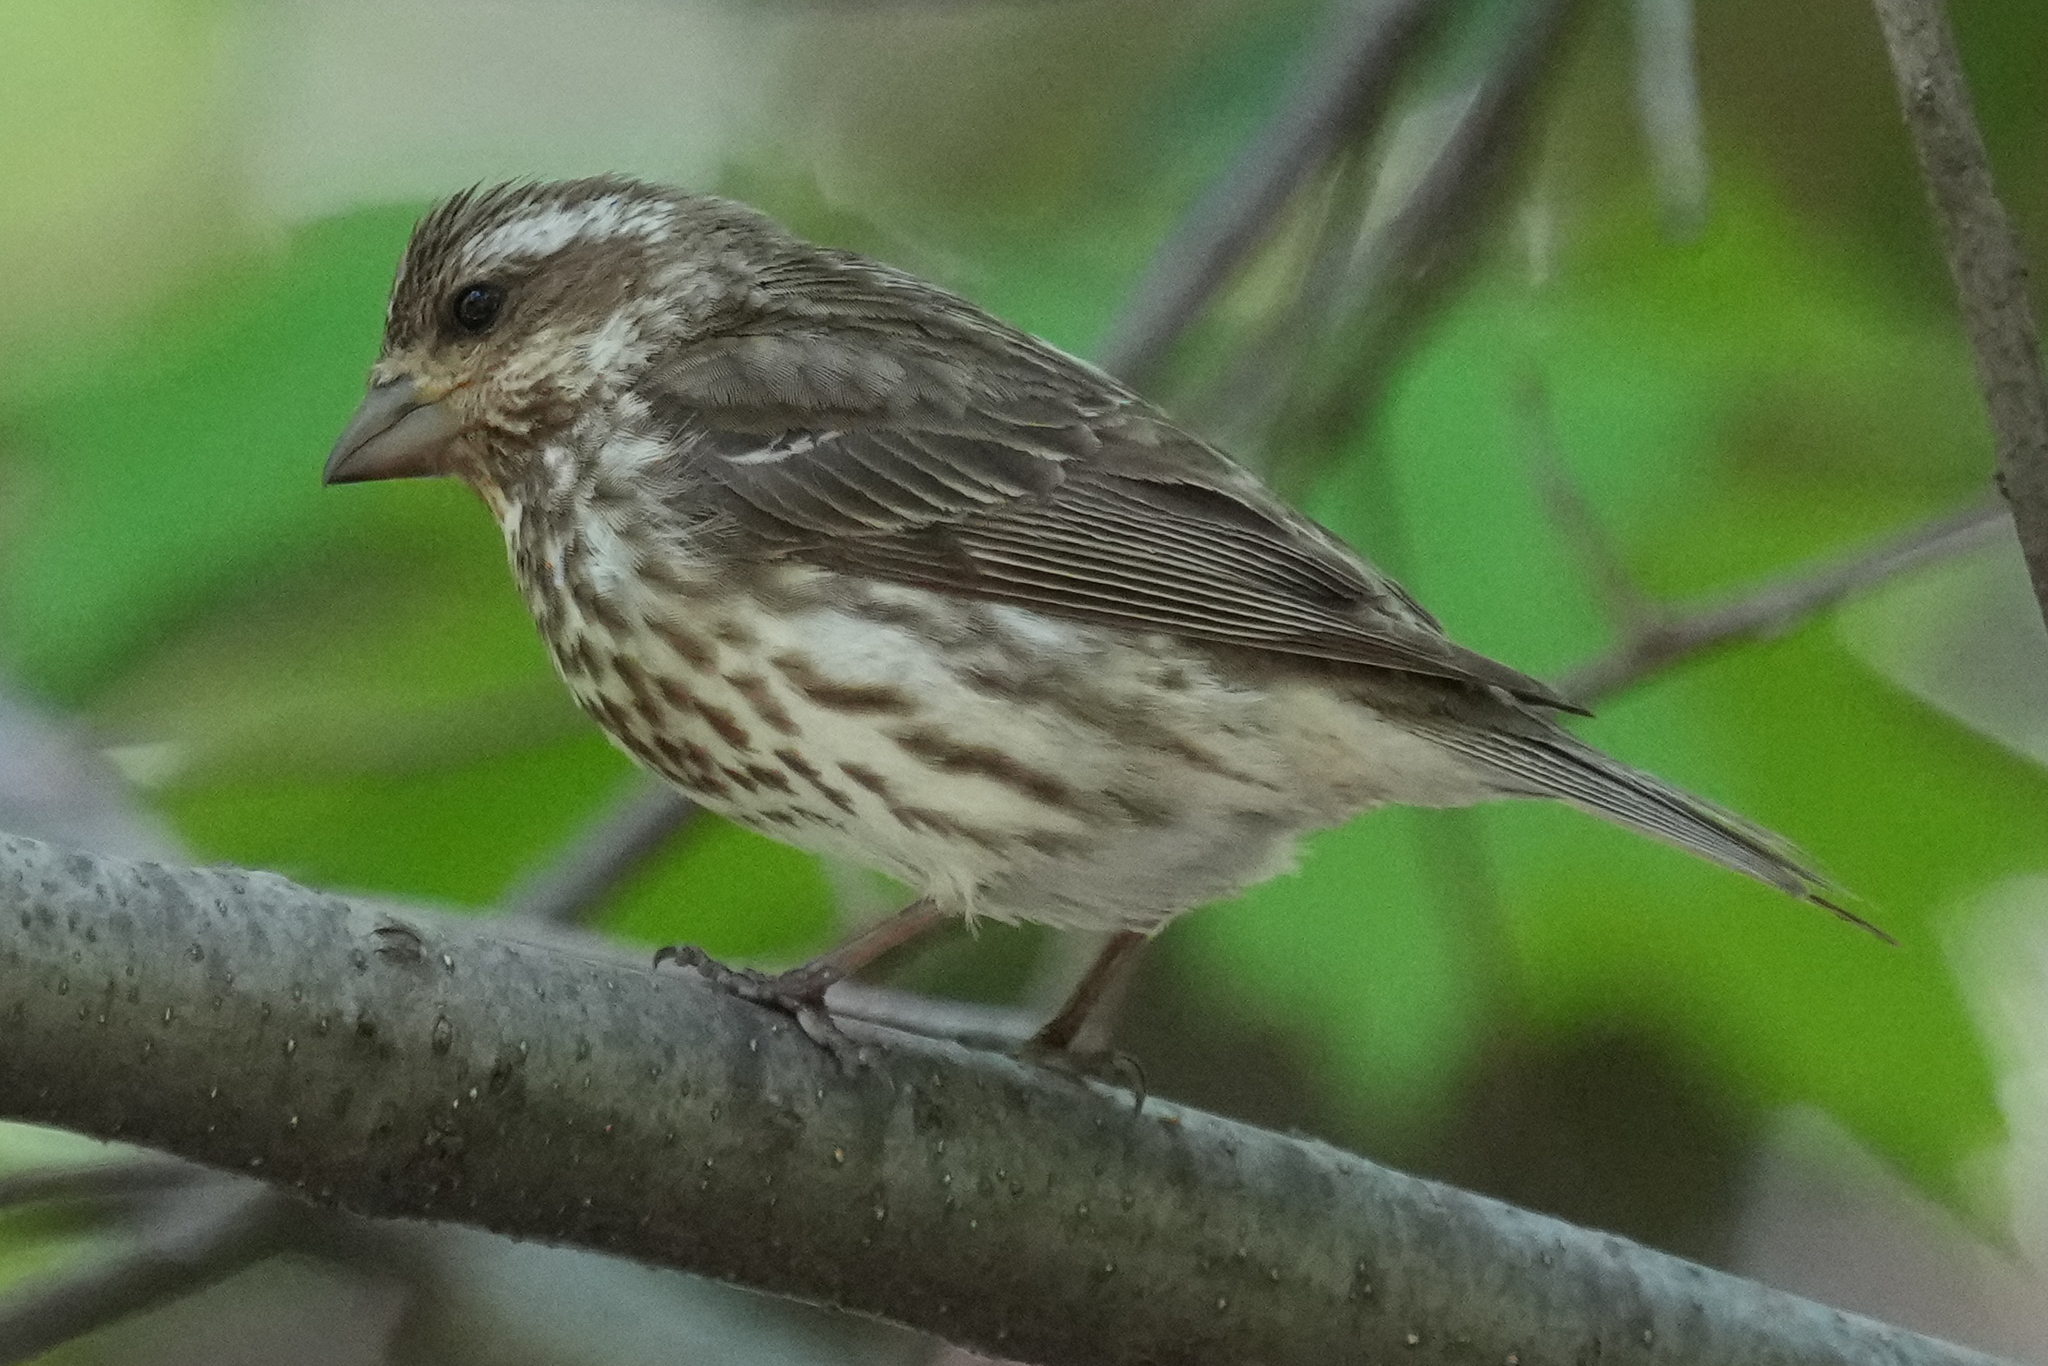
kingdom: Animalia
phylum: Chordata
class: Aves
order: Passeriformes
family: Fringillidae
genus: Haemorhous
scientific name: Haemorhous purpureus
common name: Purple finch
